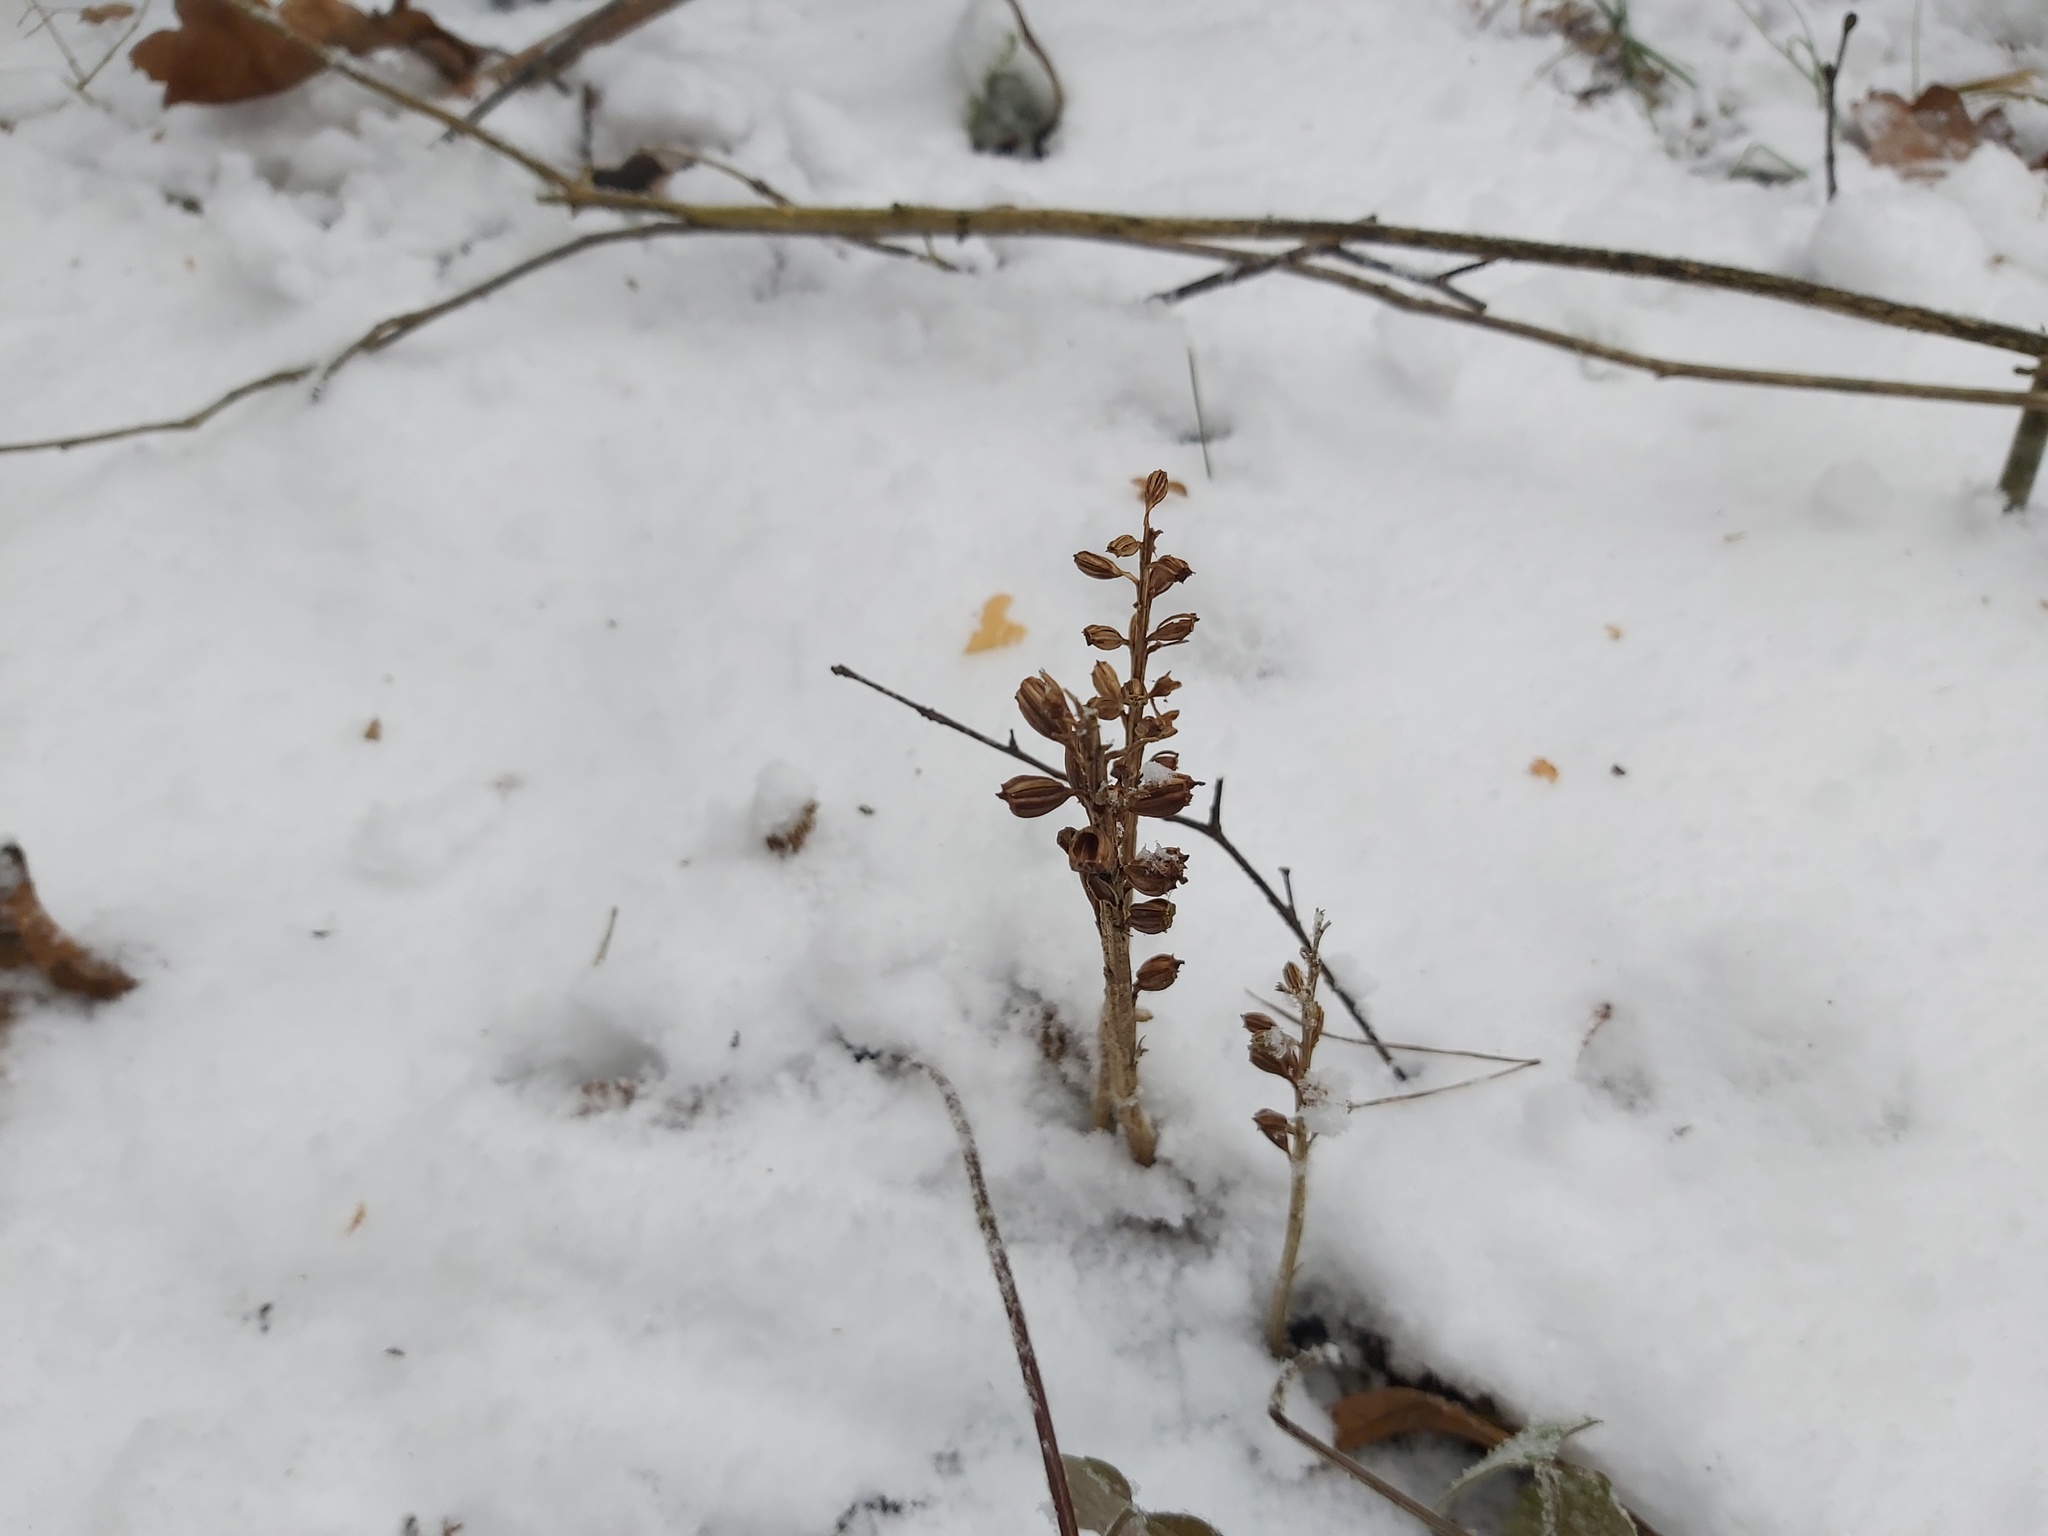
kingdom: Plantae
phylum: Tracheophyta
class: Liliopsida
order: Asparagales
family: Orchidaceae
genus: Neottia
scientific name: Neottia nidus-avis
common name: Bird's-nest orchid
